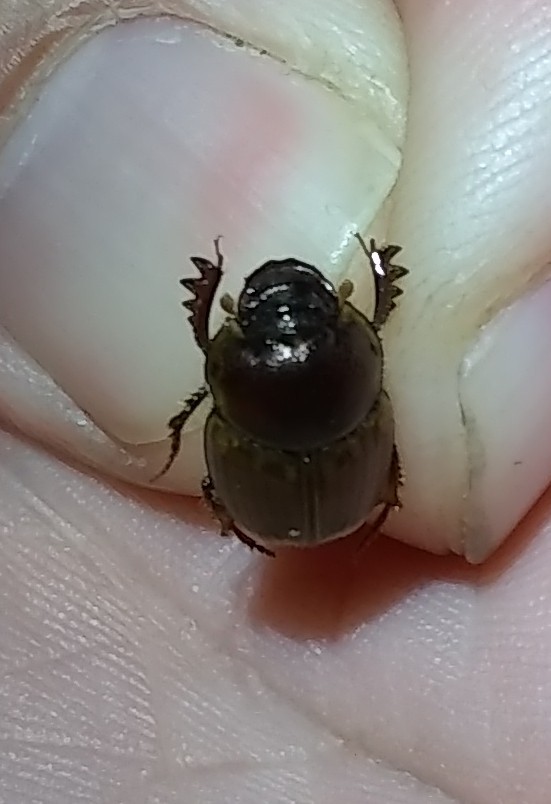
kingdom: Animalia
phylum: Arthropoda
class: Insecta
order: Coleoptera
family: Scarabaeidae
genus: Digitonthophagus
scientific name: Digitonthophagus gazella
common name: Brown dung beetle
